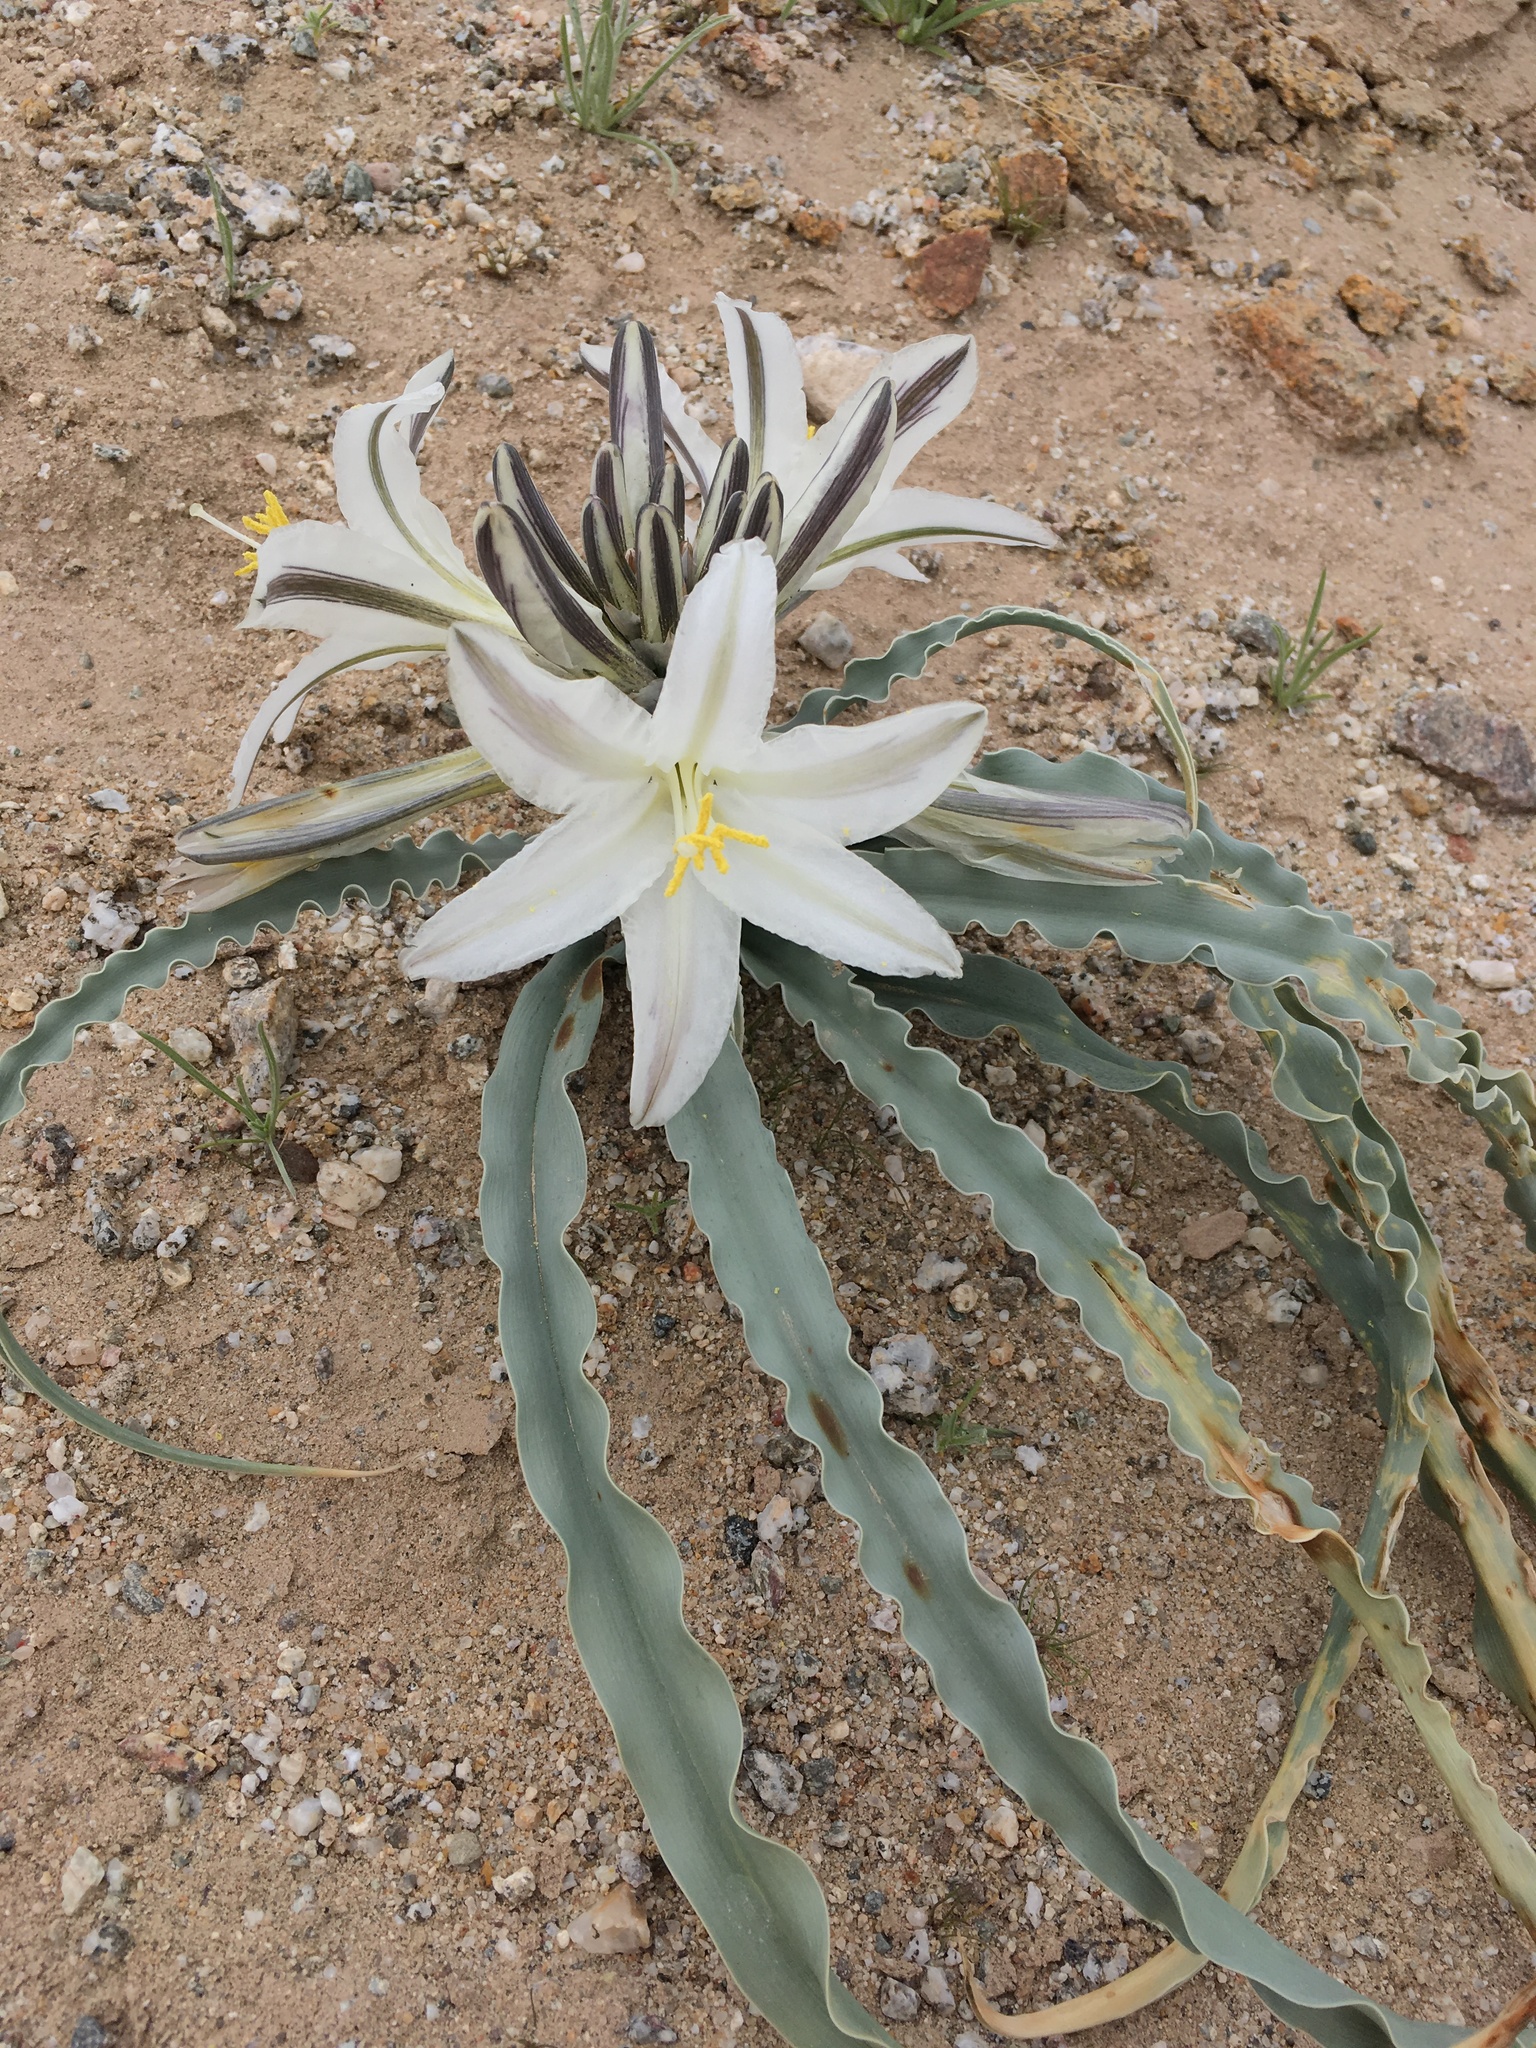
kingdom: Plantae
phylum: Tracheophyta
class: Liliopsida
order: Asparagales
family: Asparagaceae
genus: Hesperocallis
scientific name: Hesperocallis undulata
